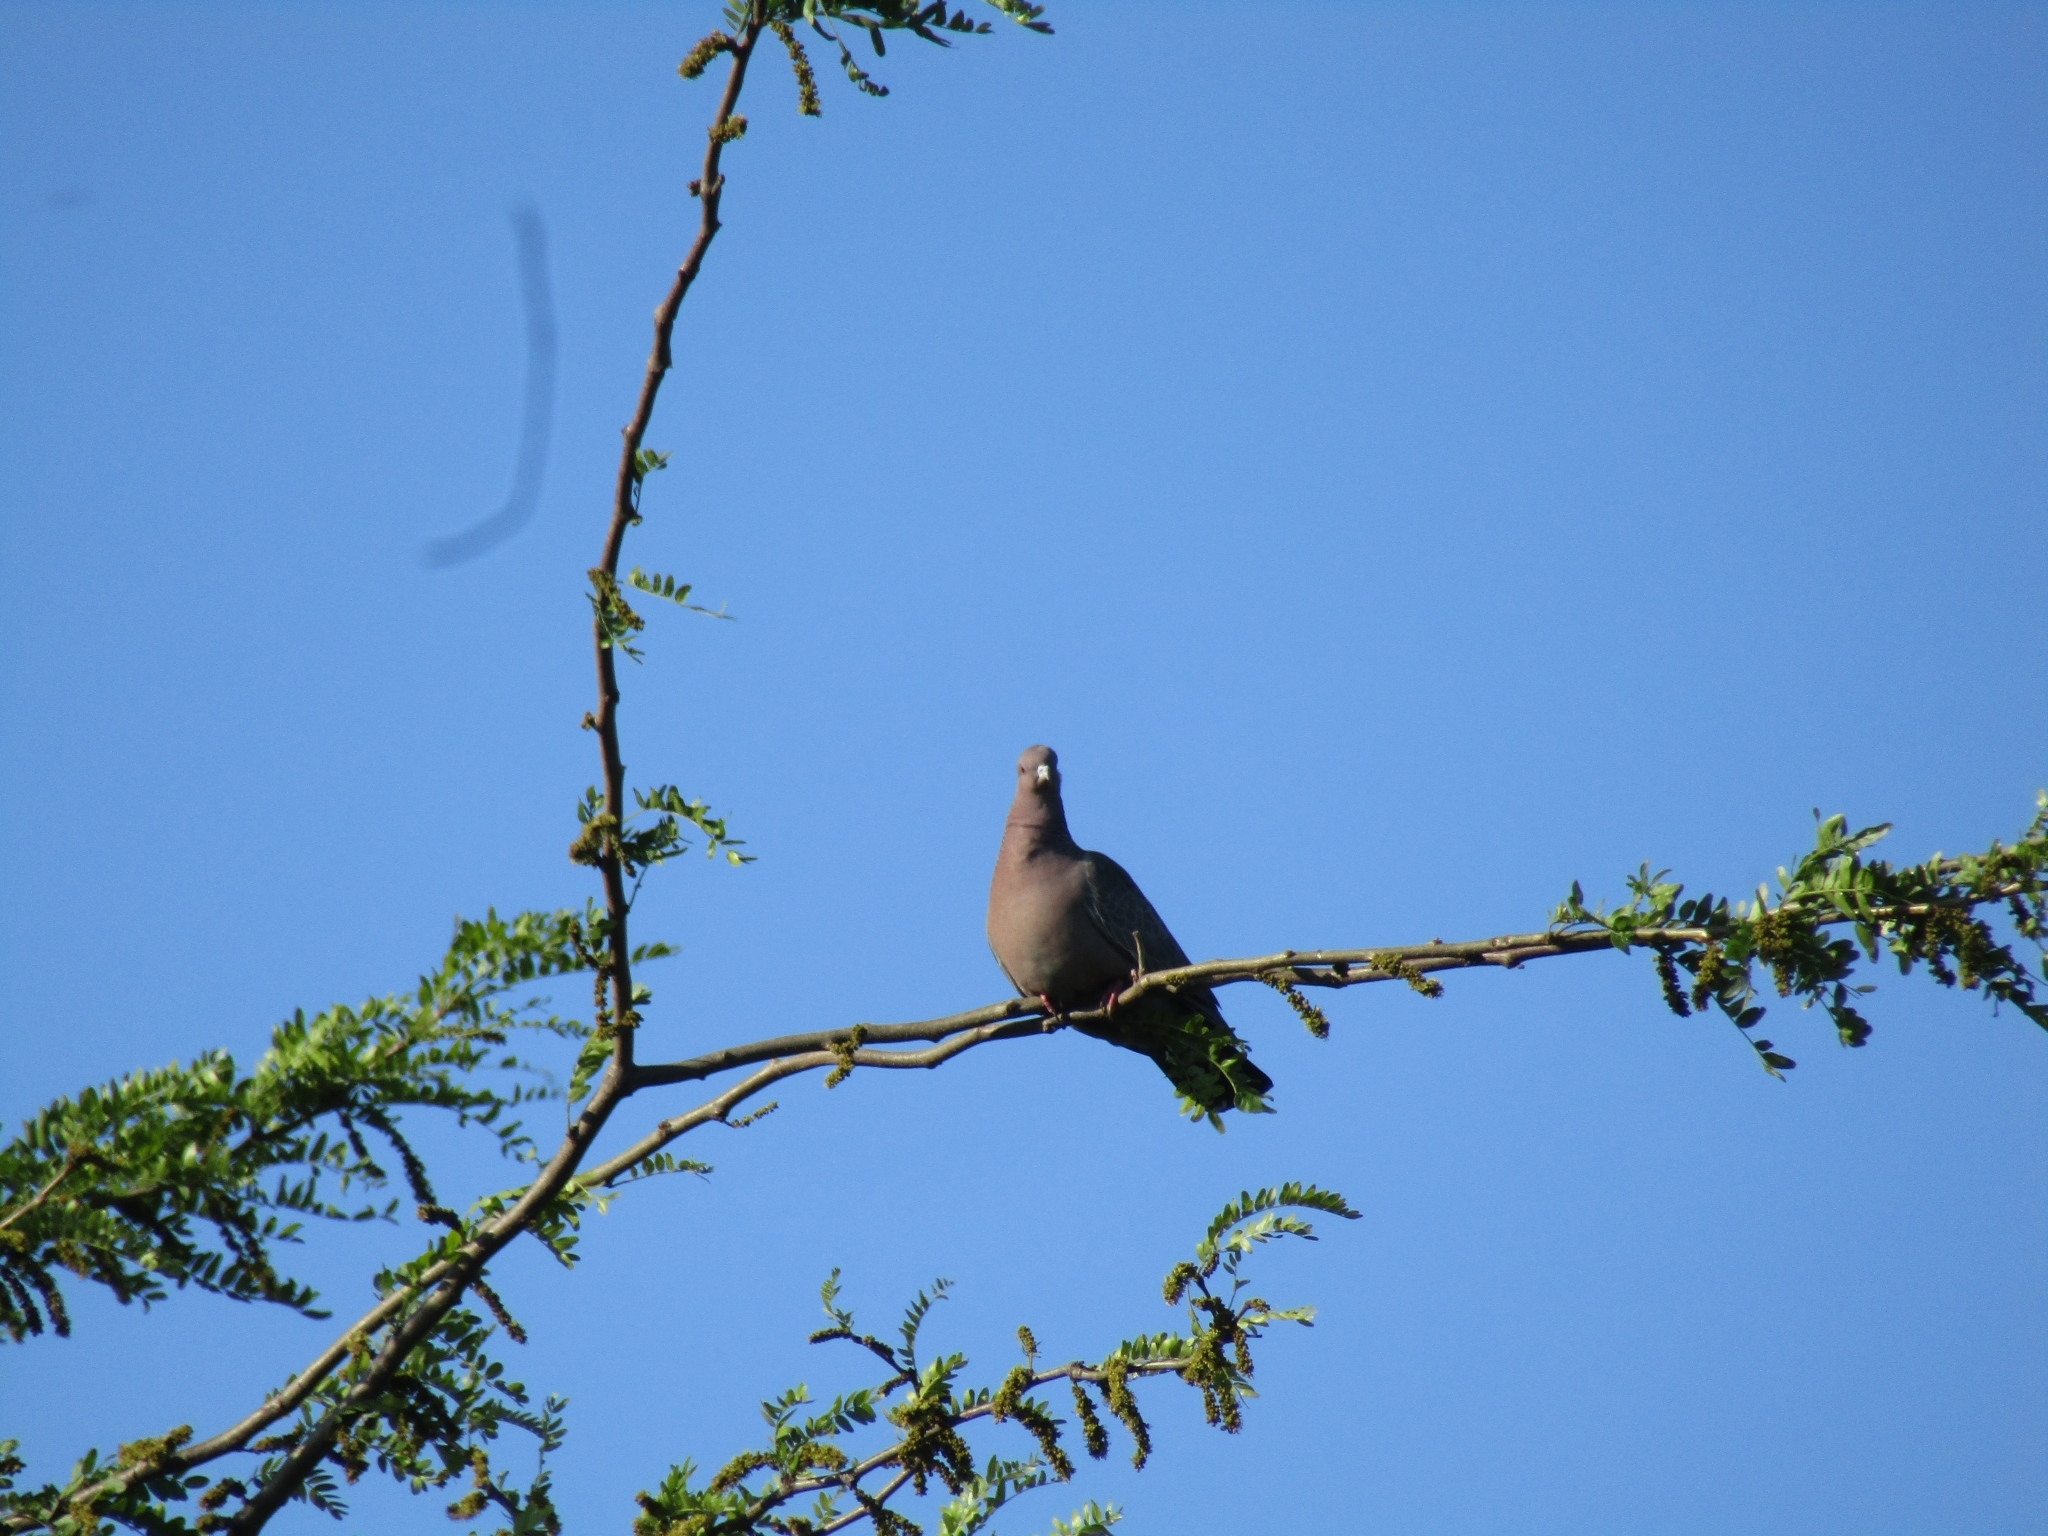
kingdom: Animalia
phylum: Chordata
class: Aves
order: Columbiformes
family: Columbidae
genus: Patagioenas
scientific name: Patagioenas picazuro
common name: Picazuro pigeon
